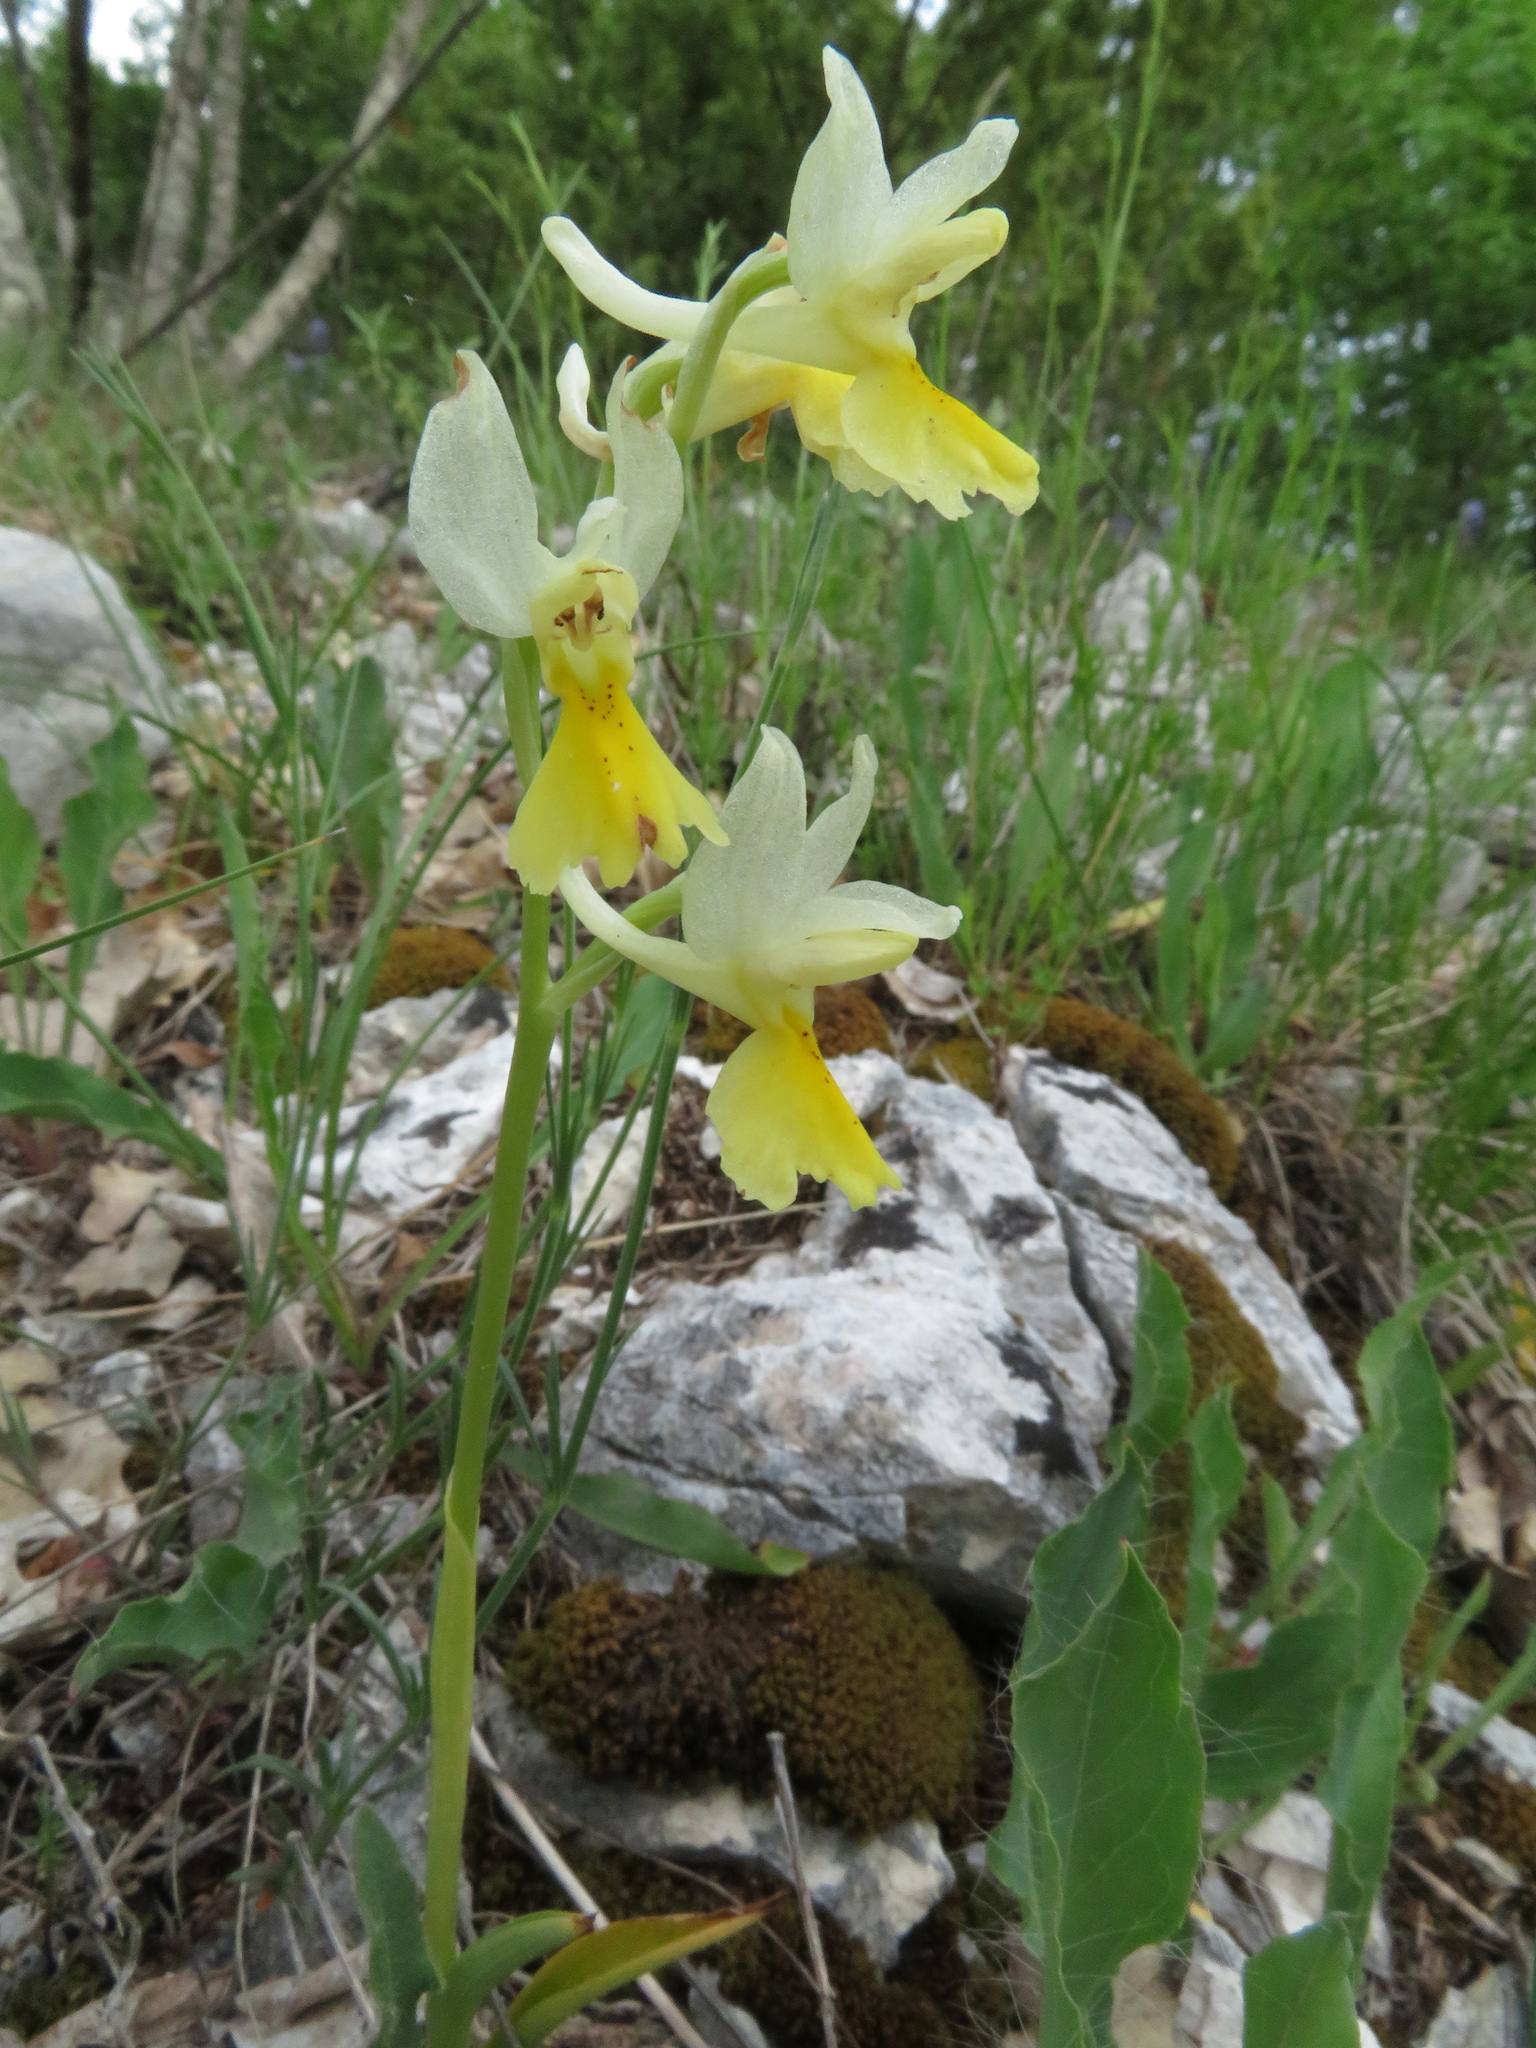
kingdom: Plantae
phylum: Tracheophyta
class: Liliopsida
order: Asparagales
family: Orchidaceae
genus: Orchis
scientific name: Orchis pauciflora
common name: Few-flowered orchid
